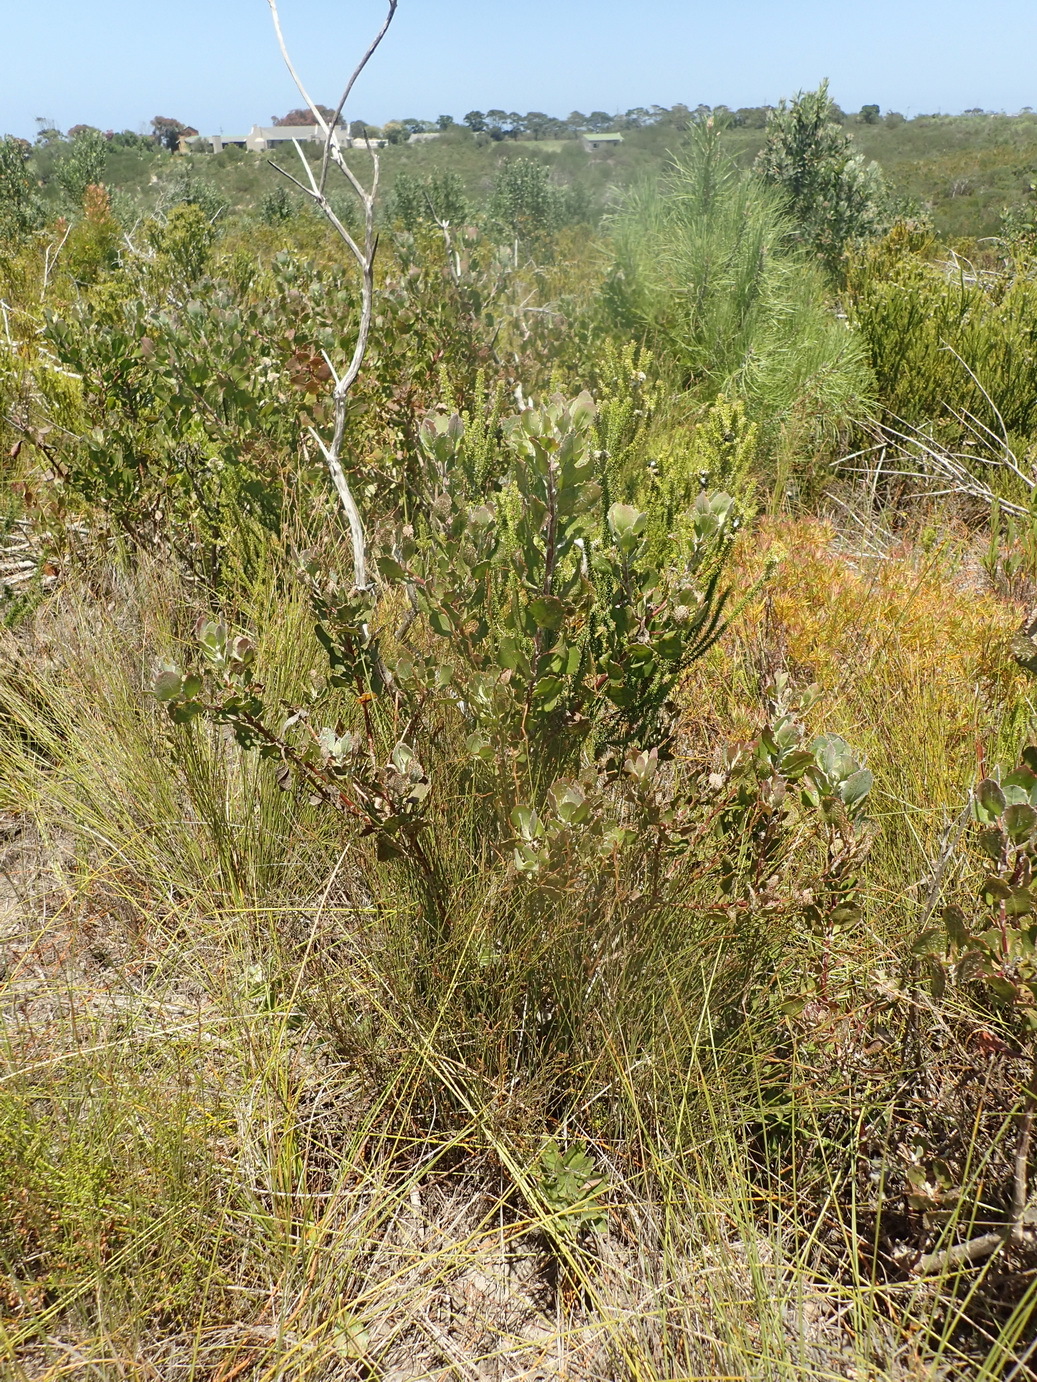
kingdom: Plantae
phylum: Tracheophyta
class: Magnoliopsida
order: Asterales
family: Asteraceae
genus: Osteospermum
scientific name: Osteospermum moniliferum
